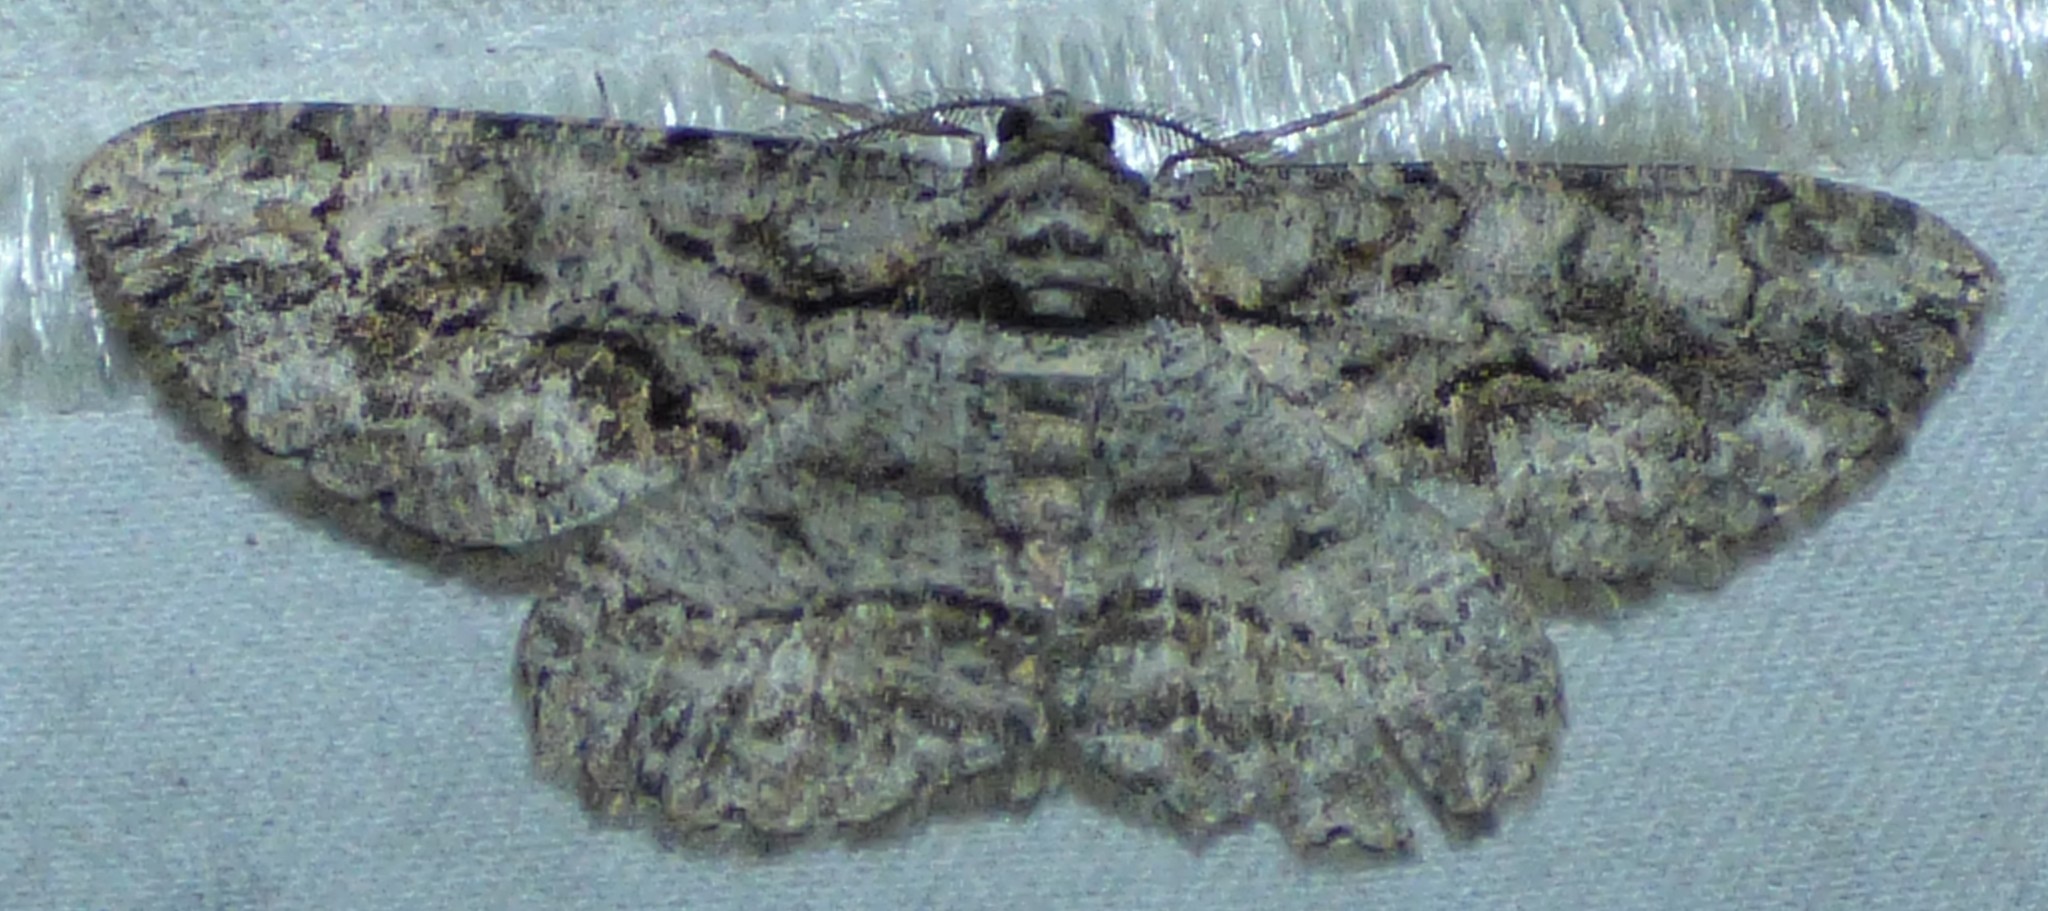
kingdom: Animalia
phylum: Arthropoda
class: Insecta
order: Lepidoptera
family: Geometridae
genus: Anavitrinella
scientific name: Anavitrinella pampinaria
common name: Common gray
